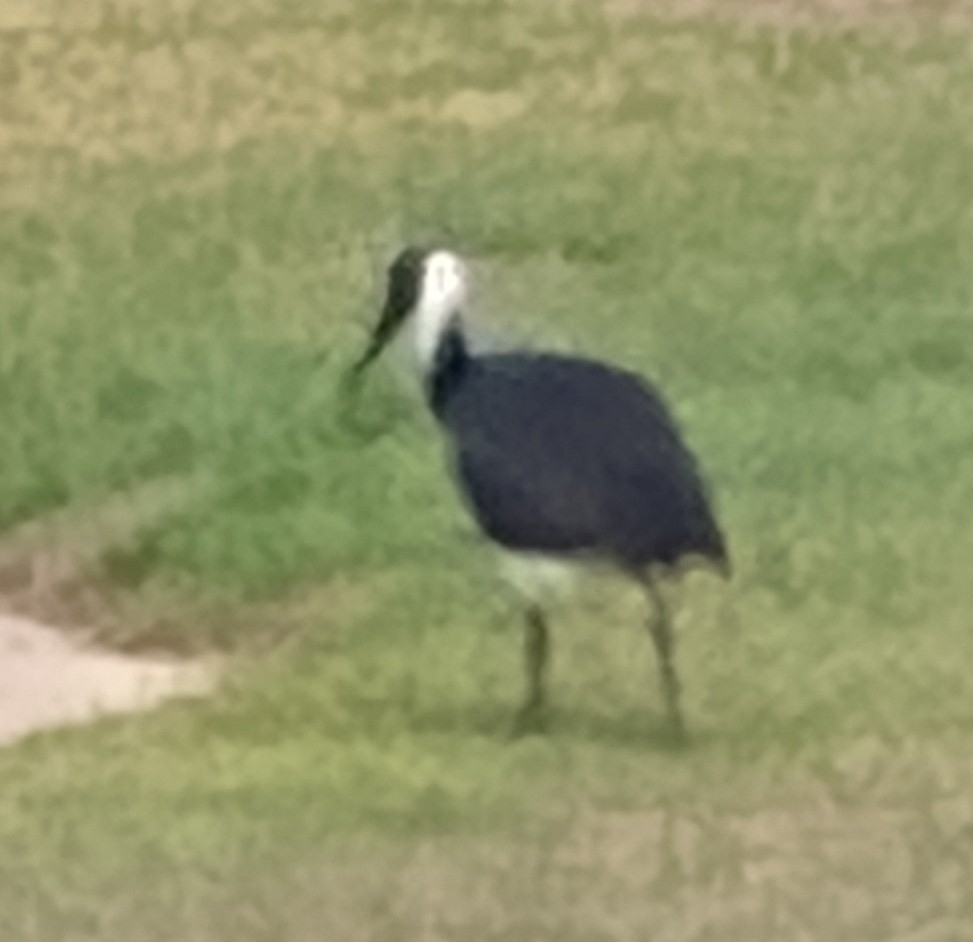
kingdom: Animalia
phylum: Chordata
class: Aves
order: Pelecaniformes
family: Threskiornithidae
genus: Threskiornis
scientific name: Threskiornis spinicollis
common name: Straw-necked ibis
